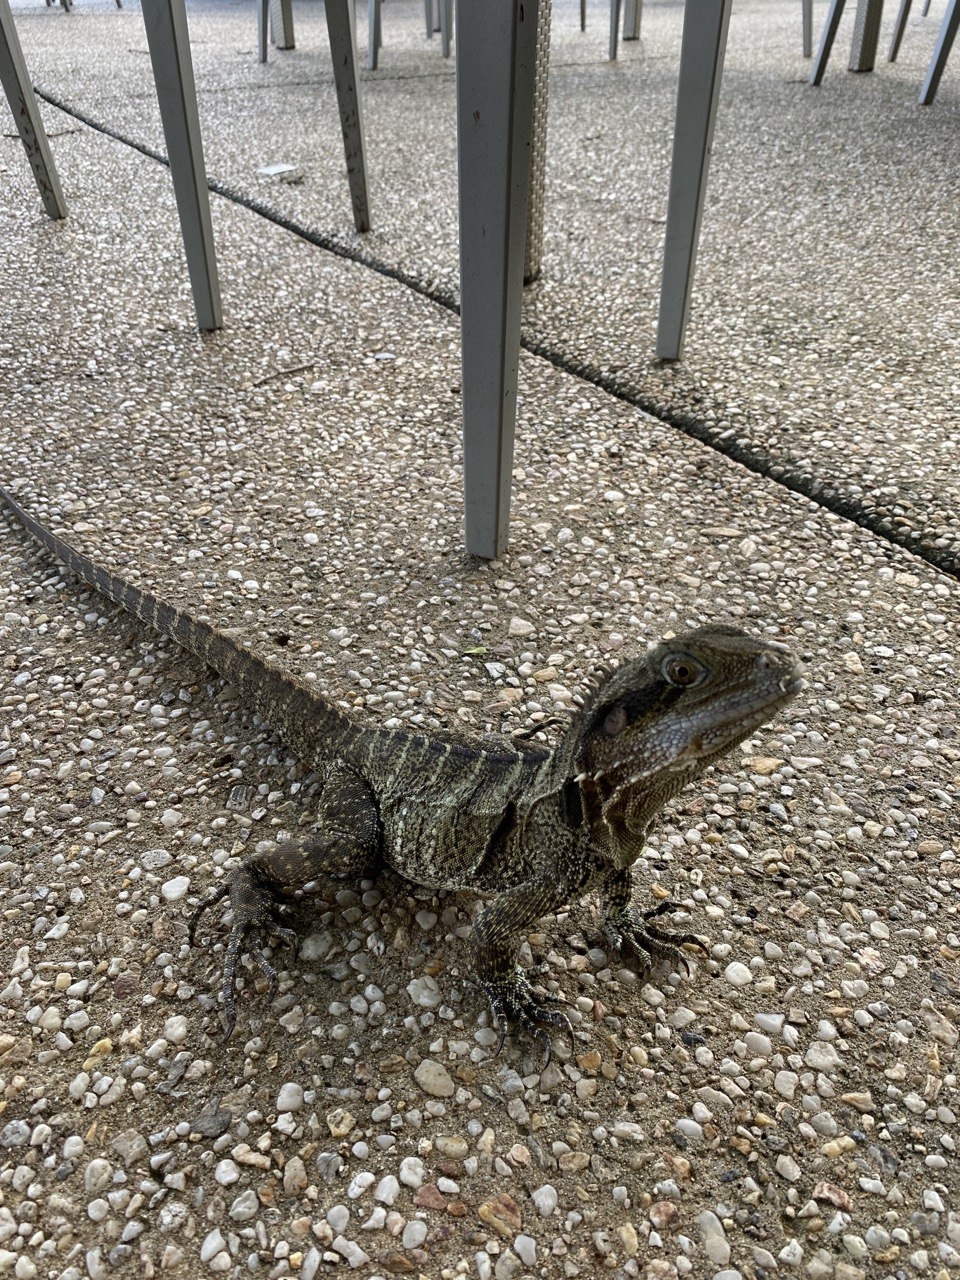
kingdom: Animalia
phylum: Chordata
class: Squamata
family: Agamidae
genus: Intellagama
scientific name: Intellagama lesueurii
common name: Eastern water dragon
